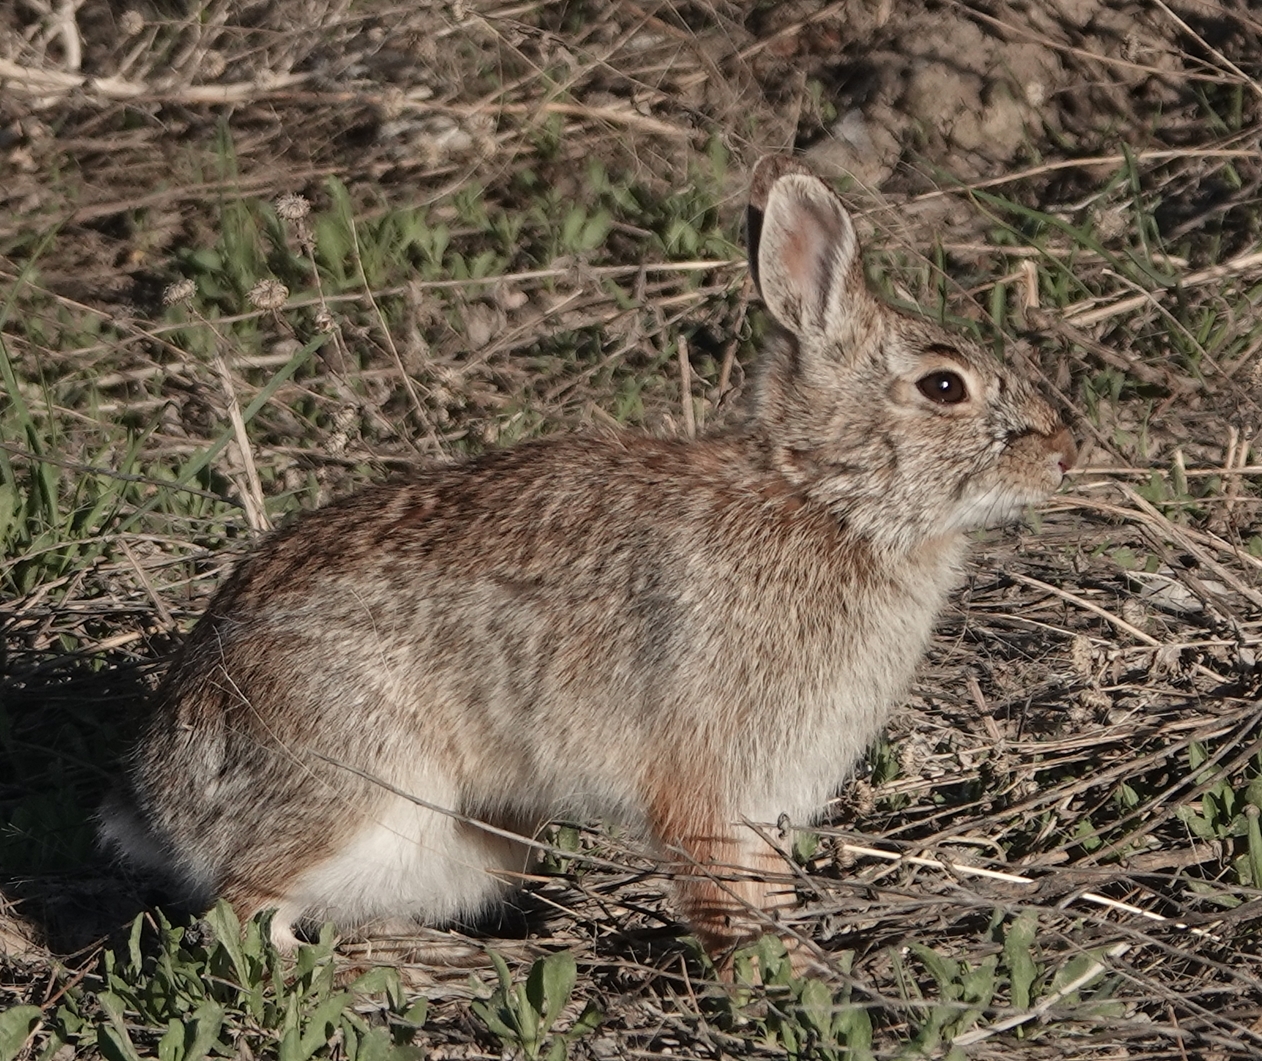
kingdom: Animalia
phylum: Chordata
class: Mammalia
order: Lagomorpha
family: Leporidae
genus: Sylvilagus
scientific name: Sylvilagus floridanus
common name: Eastern cottontail
